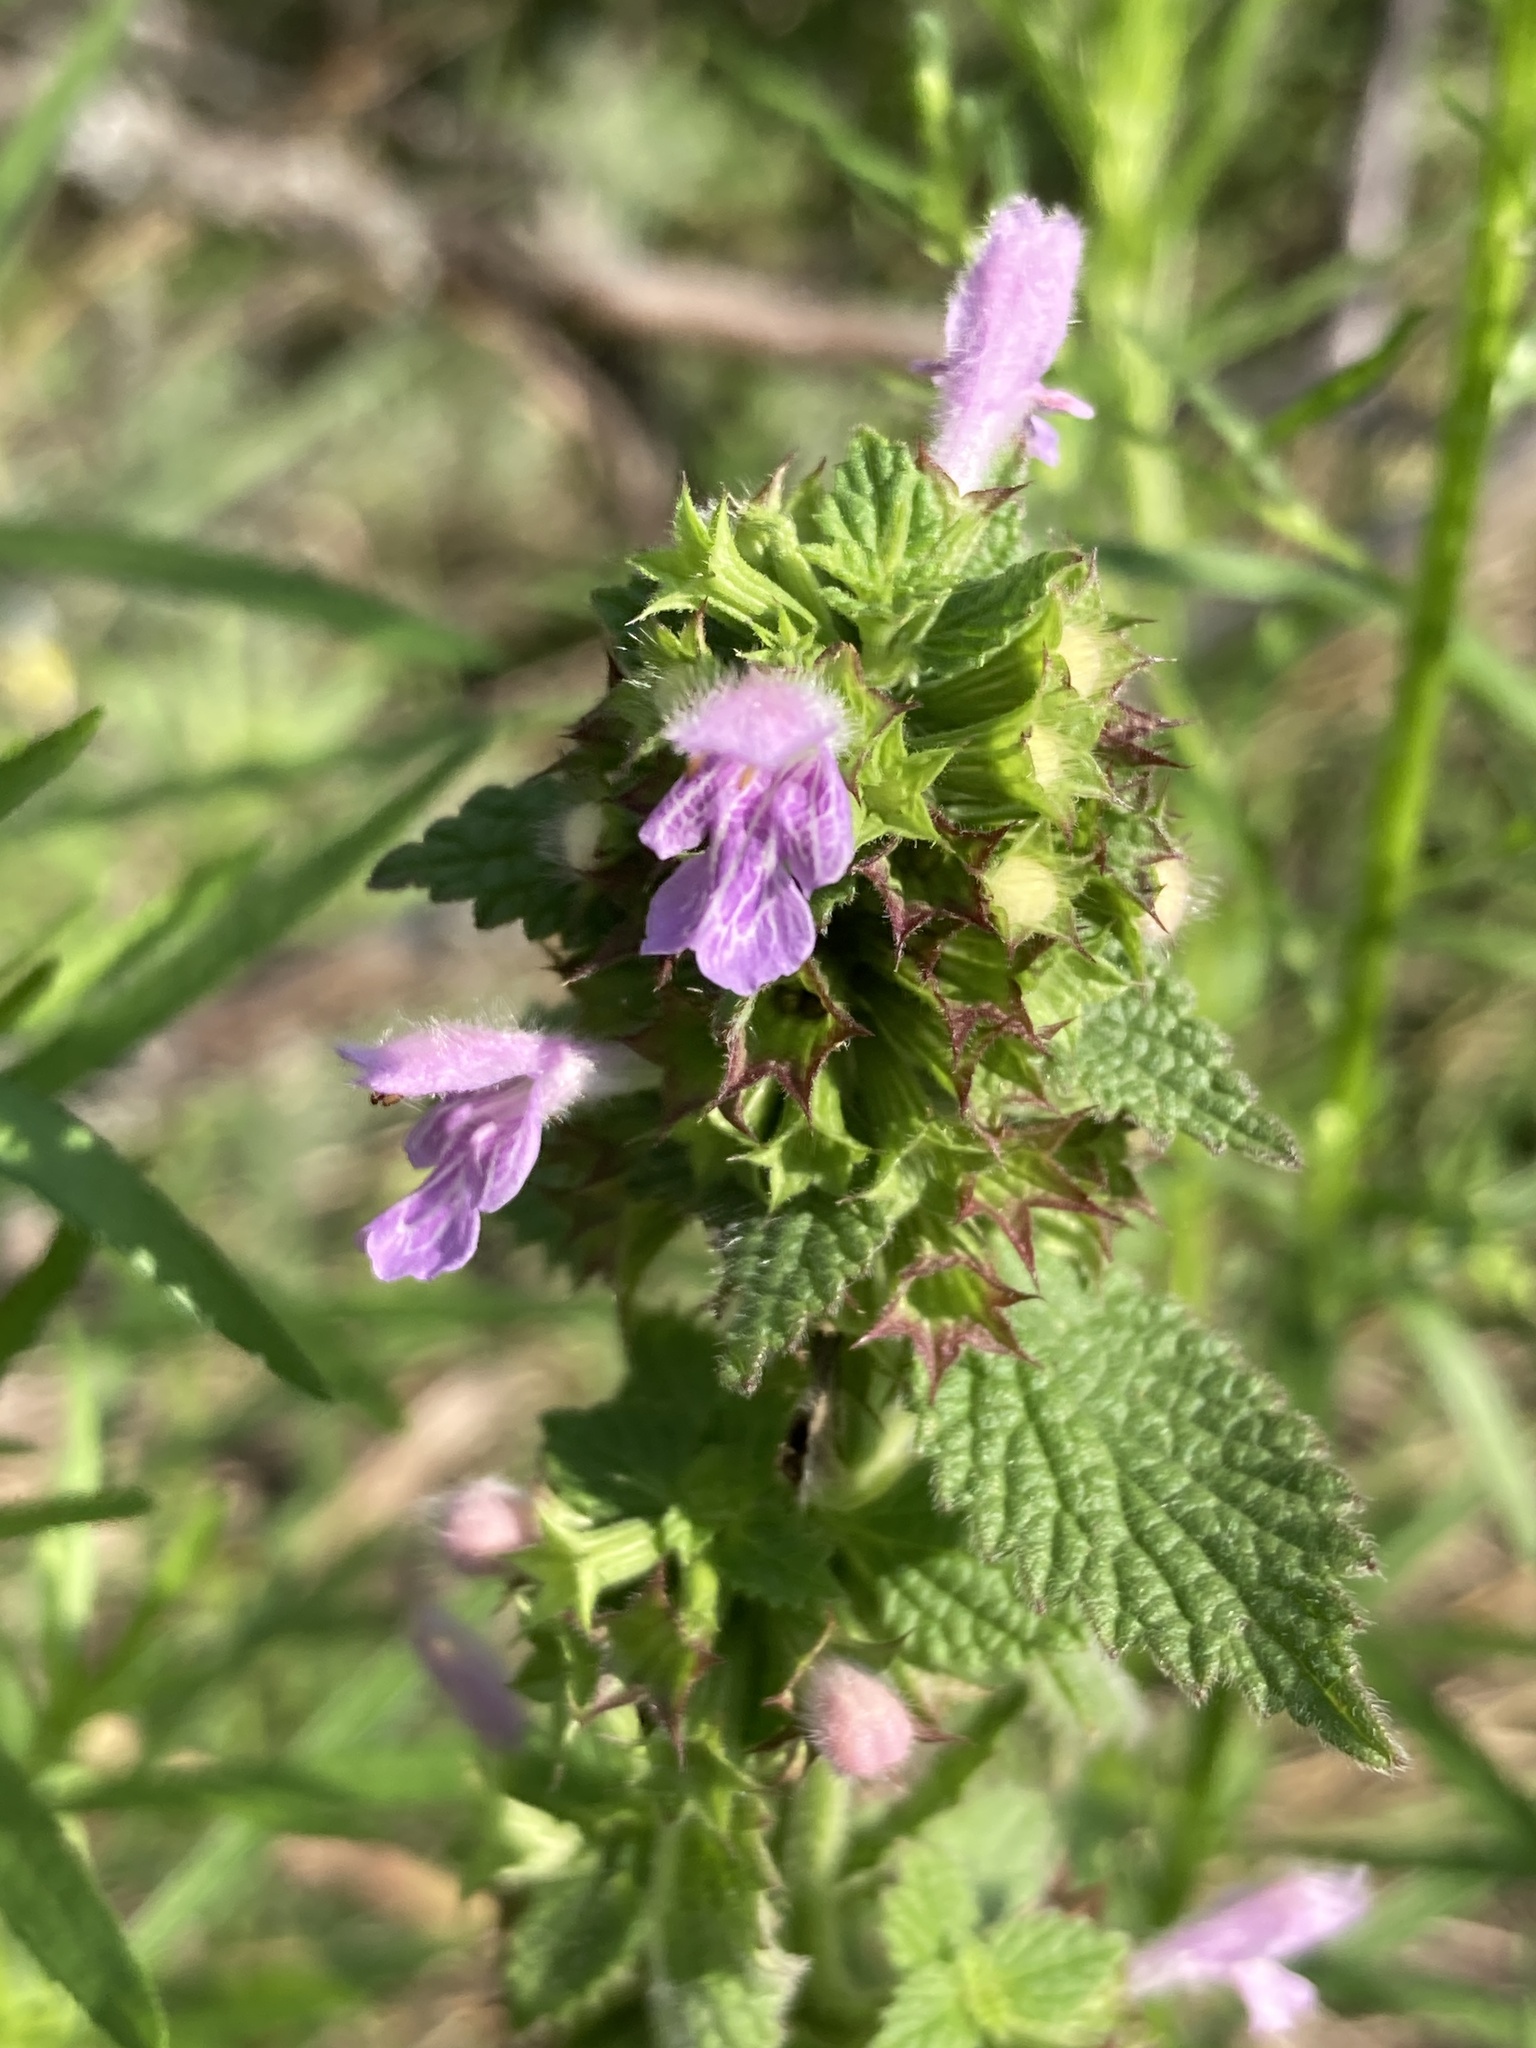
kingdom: Plantae
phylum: Tracheophyta
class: Magnoliopsida
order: Lamiales
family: Lamiaceae
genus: Ballota
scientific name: Ballota nigra
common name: Black horehound
